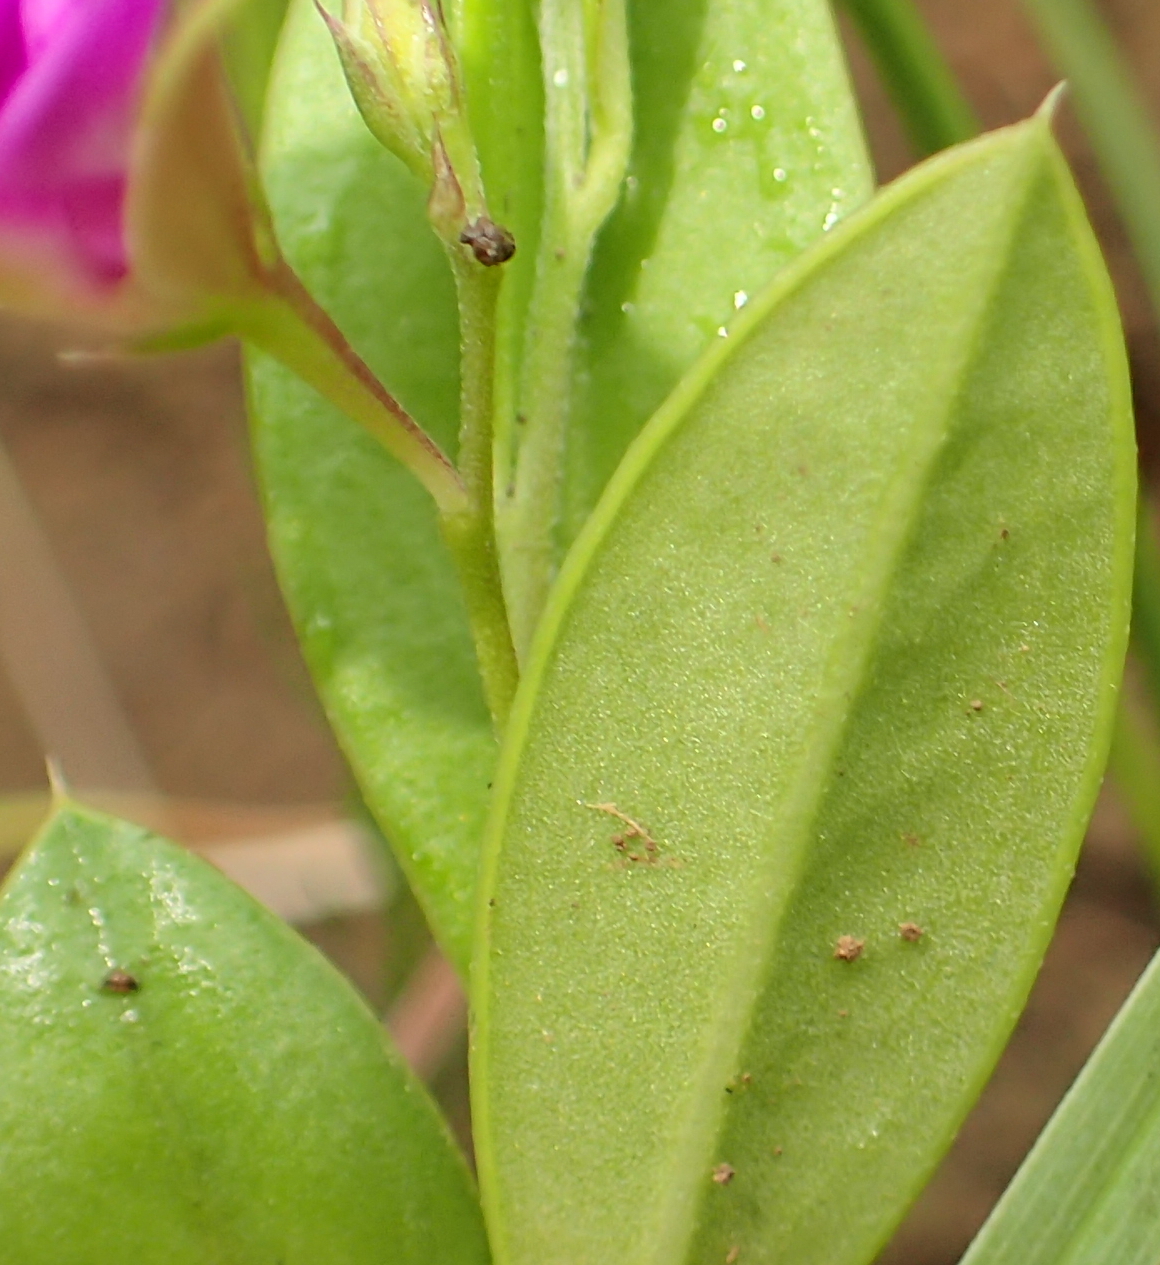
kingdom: Plantae
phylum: Tracheophyta
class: Magnoliopsida
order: Fabales
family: Polygalaceae
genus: Polygala
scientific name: Polygala amatymbica
